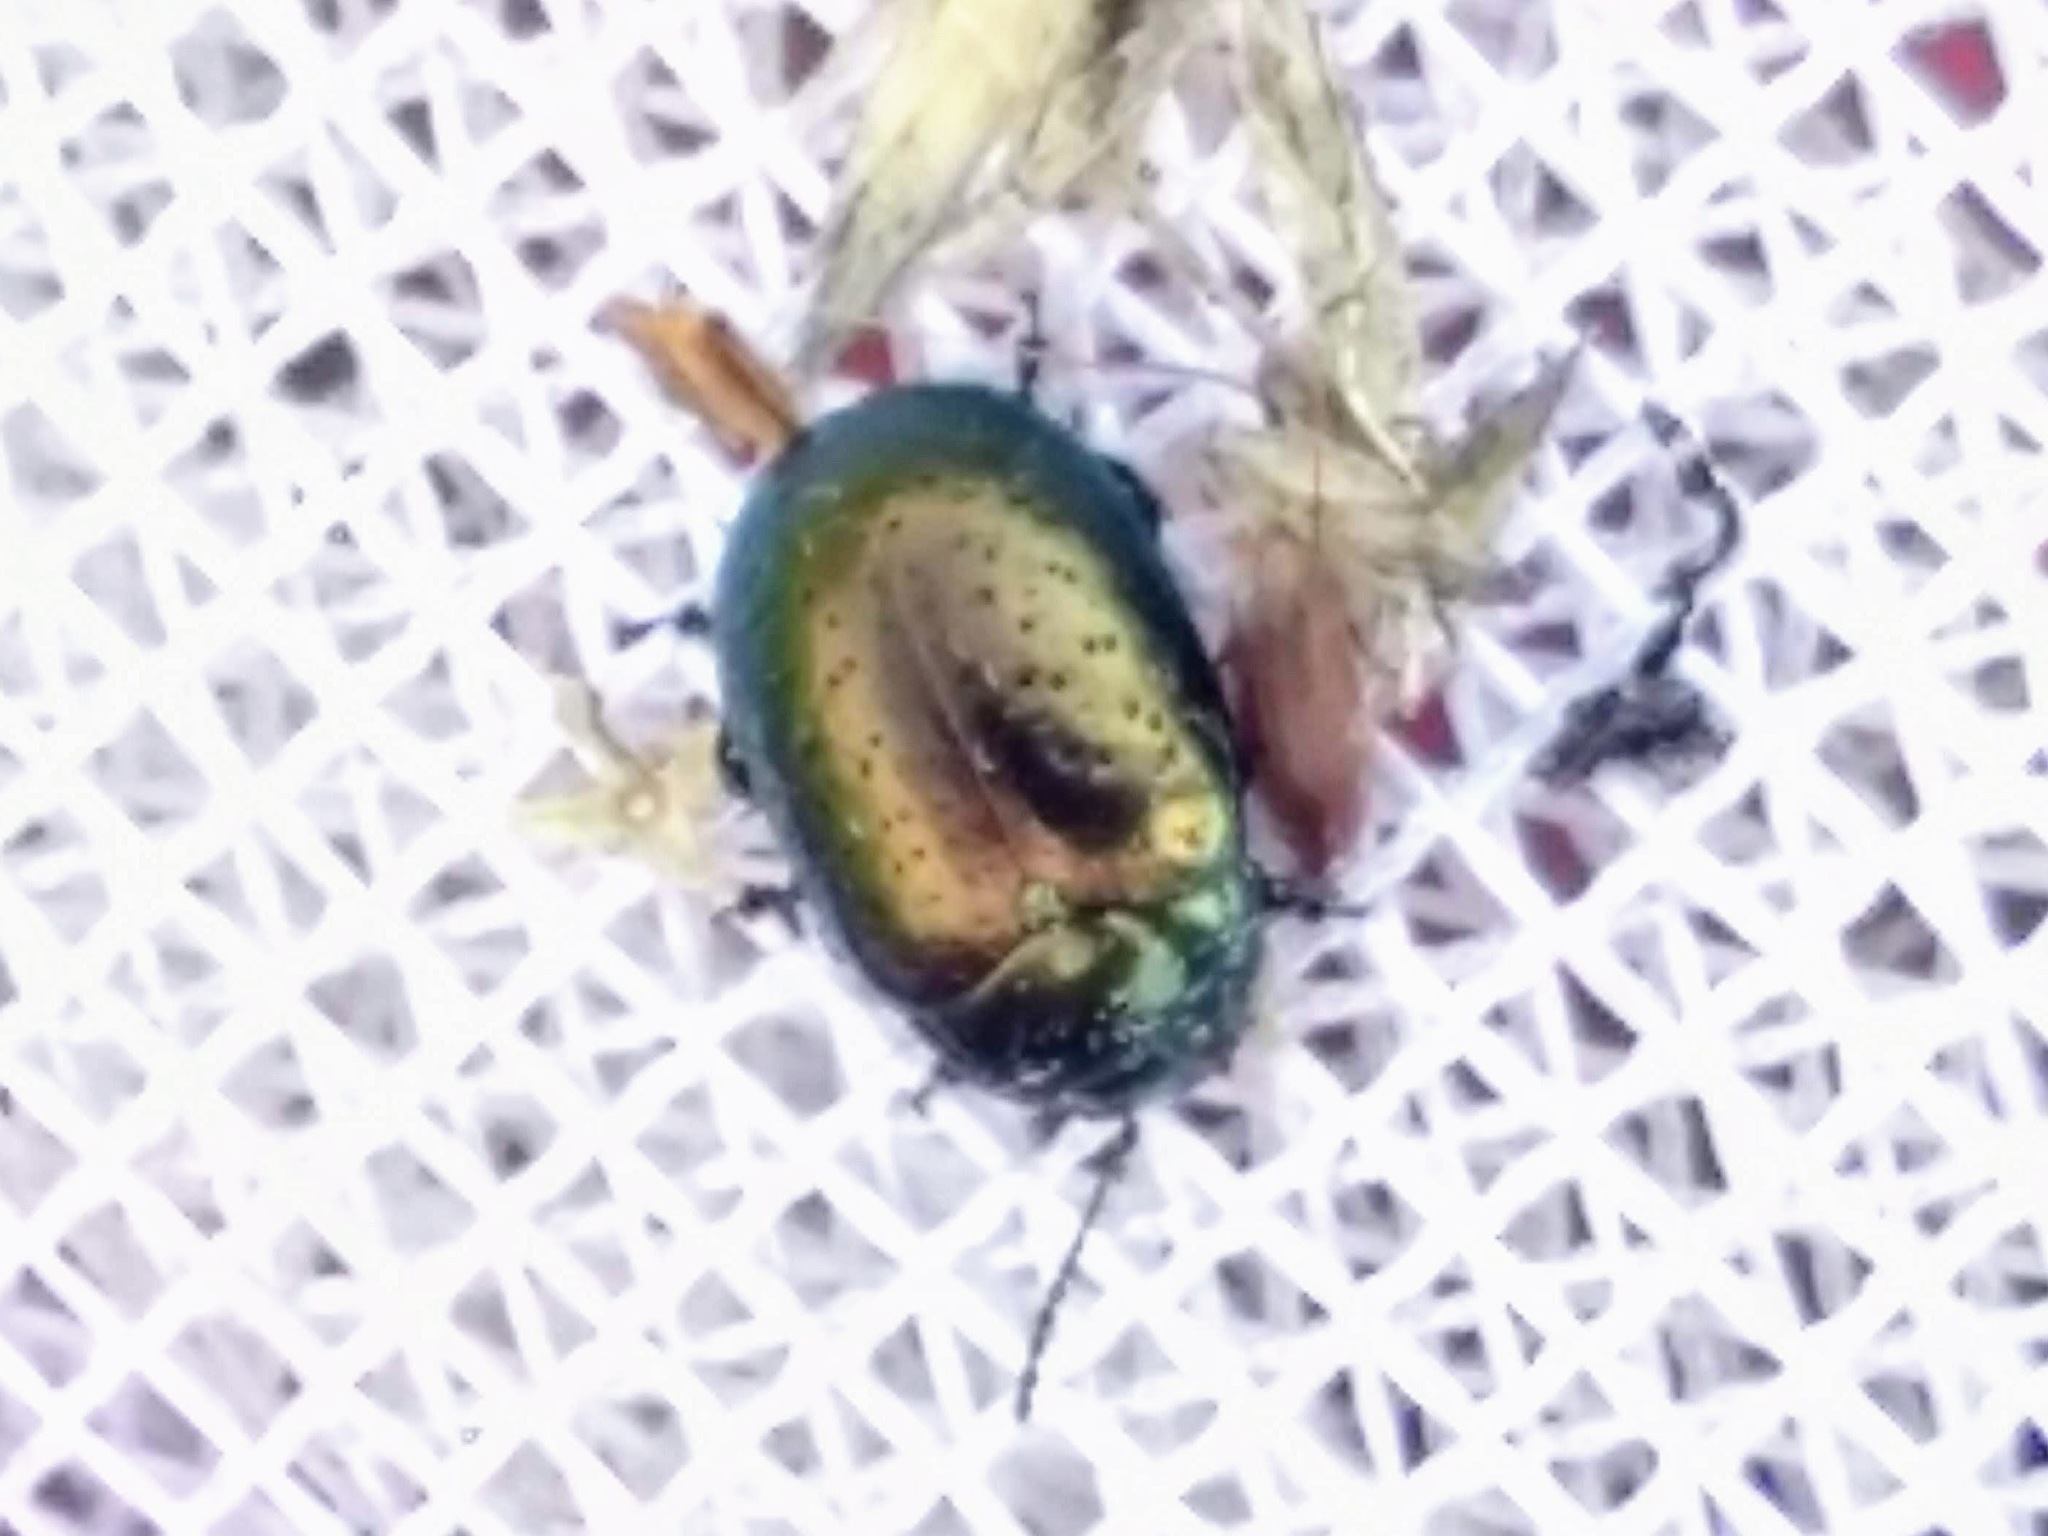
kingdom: Animalia
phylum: Arthropoda
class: Insecta
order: Coleoptera
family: Chrysomelidae
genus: Chrysolina
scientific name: Chrysolina hyperici
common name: St. johnswort beetle
